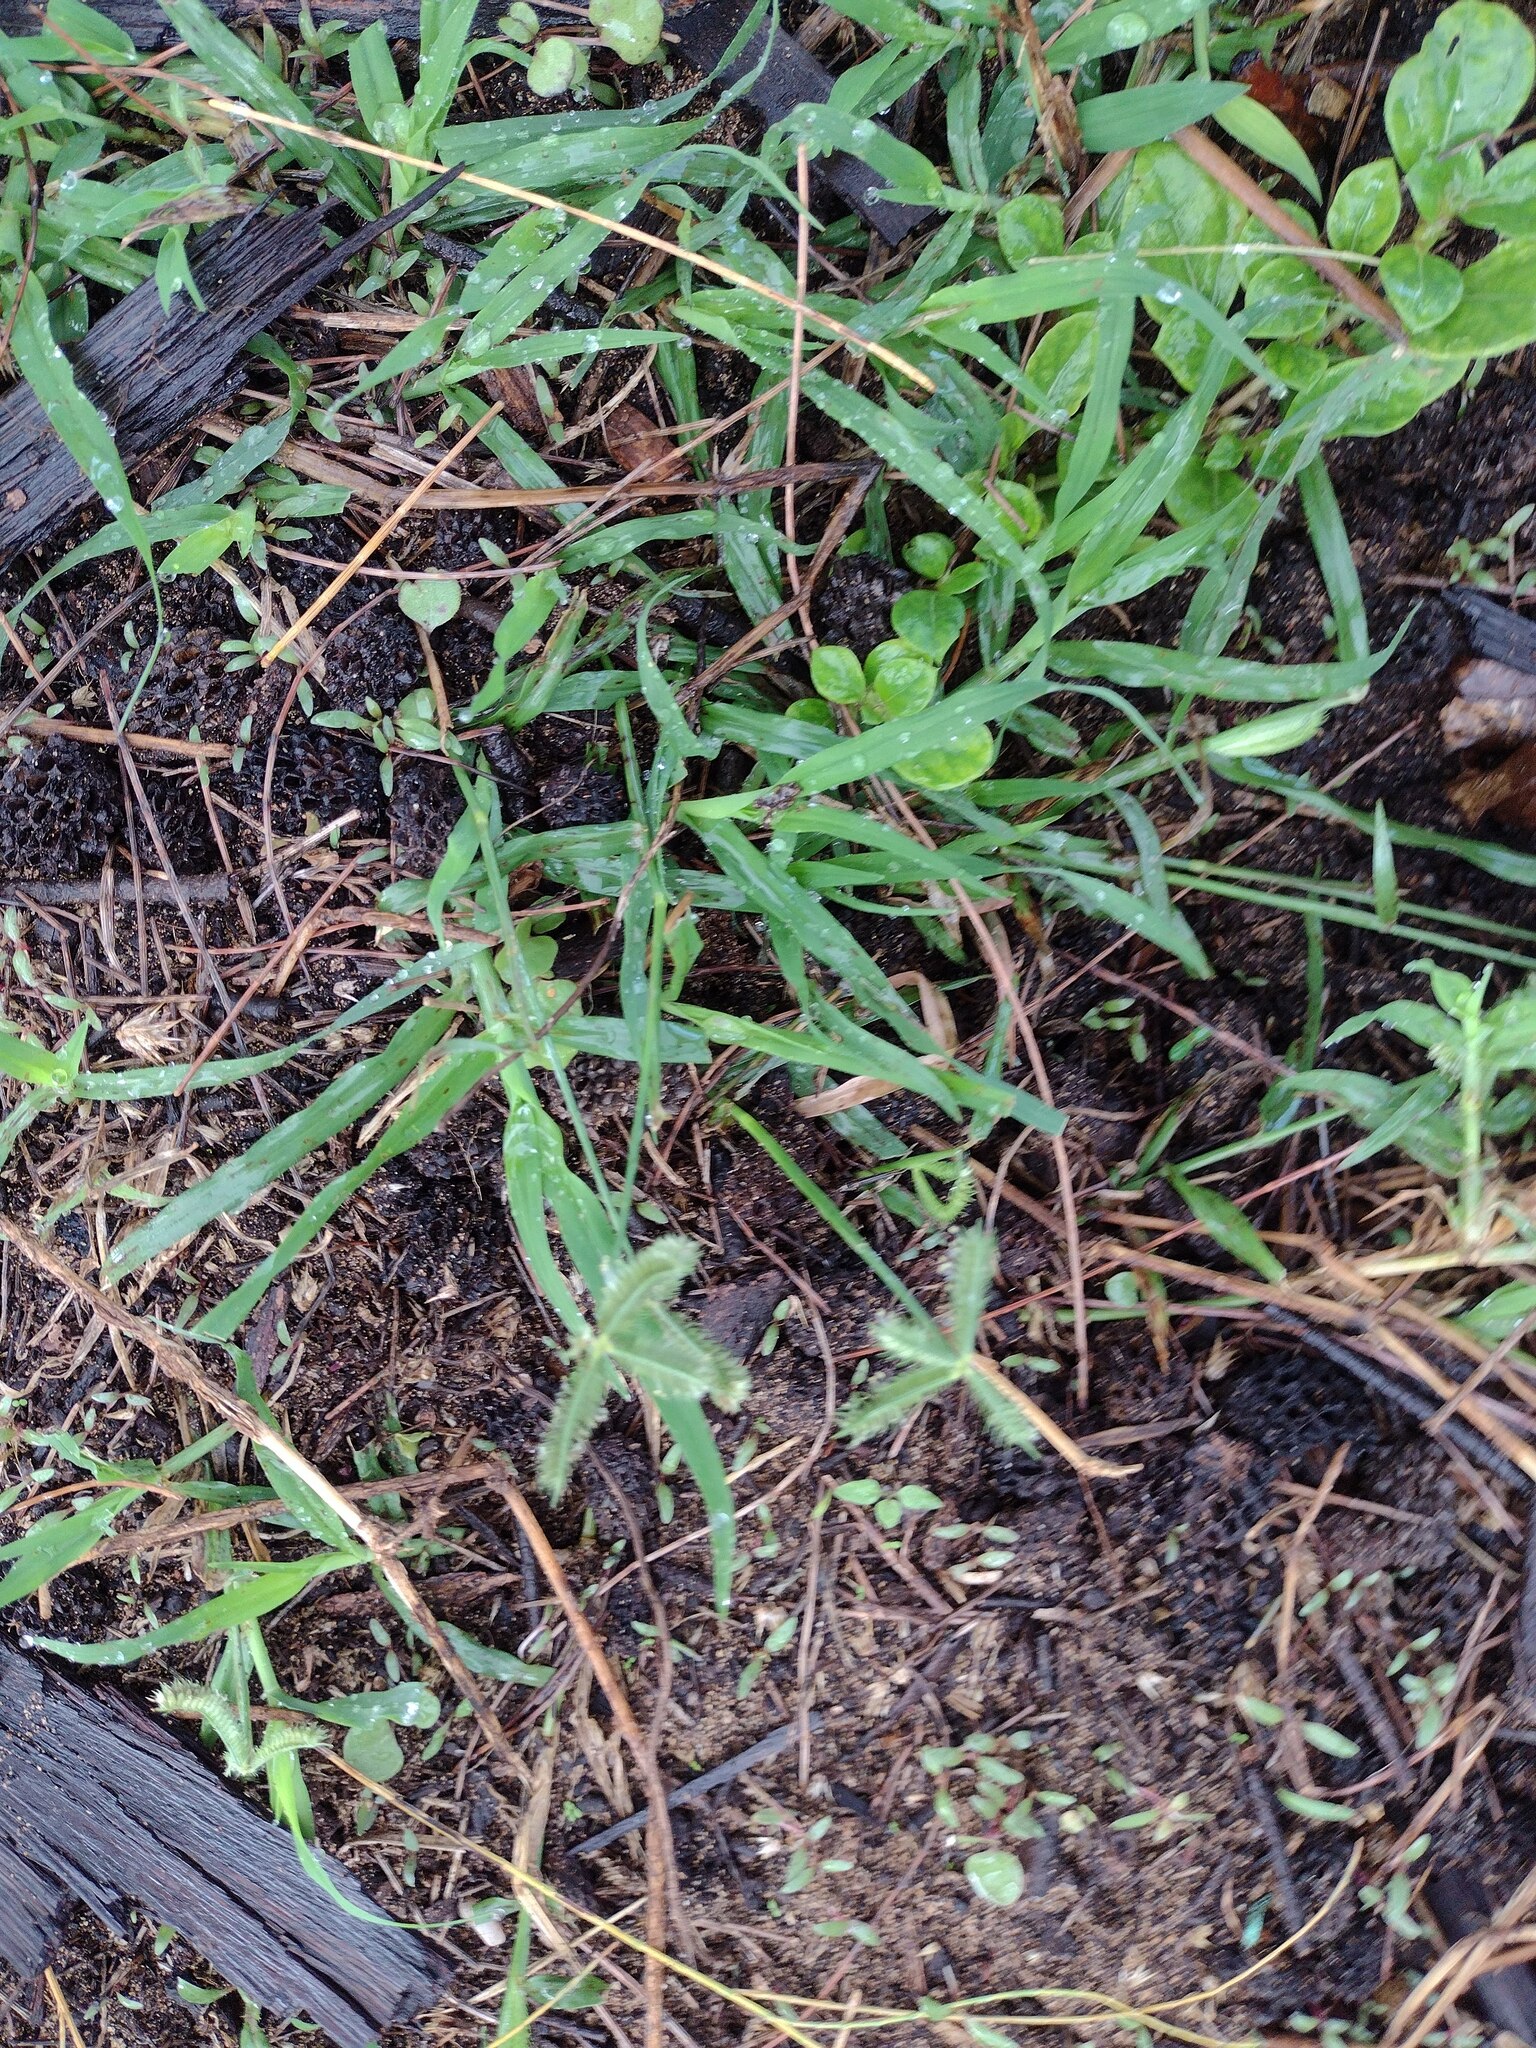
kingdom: Plantae
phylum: Tracheophyta
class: Liliopsida
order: Poales
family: Poaceae
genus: Dactyloctenium
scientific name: Dactyloctenium aegyptium
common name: Egyptian grass
